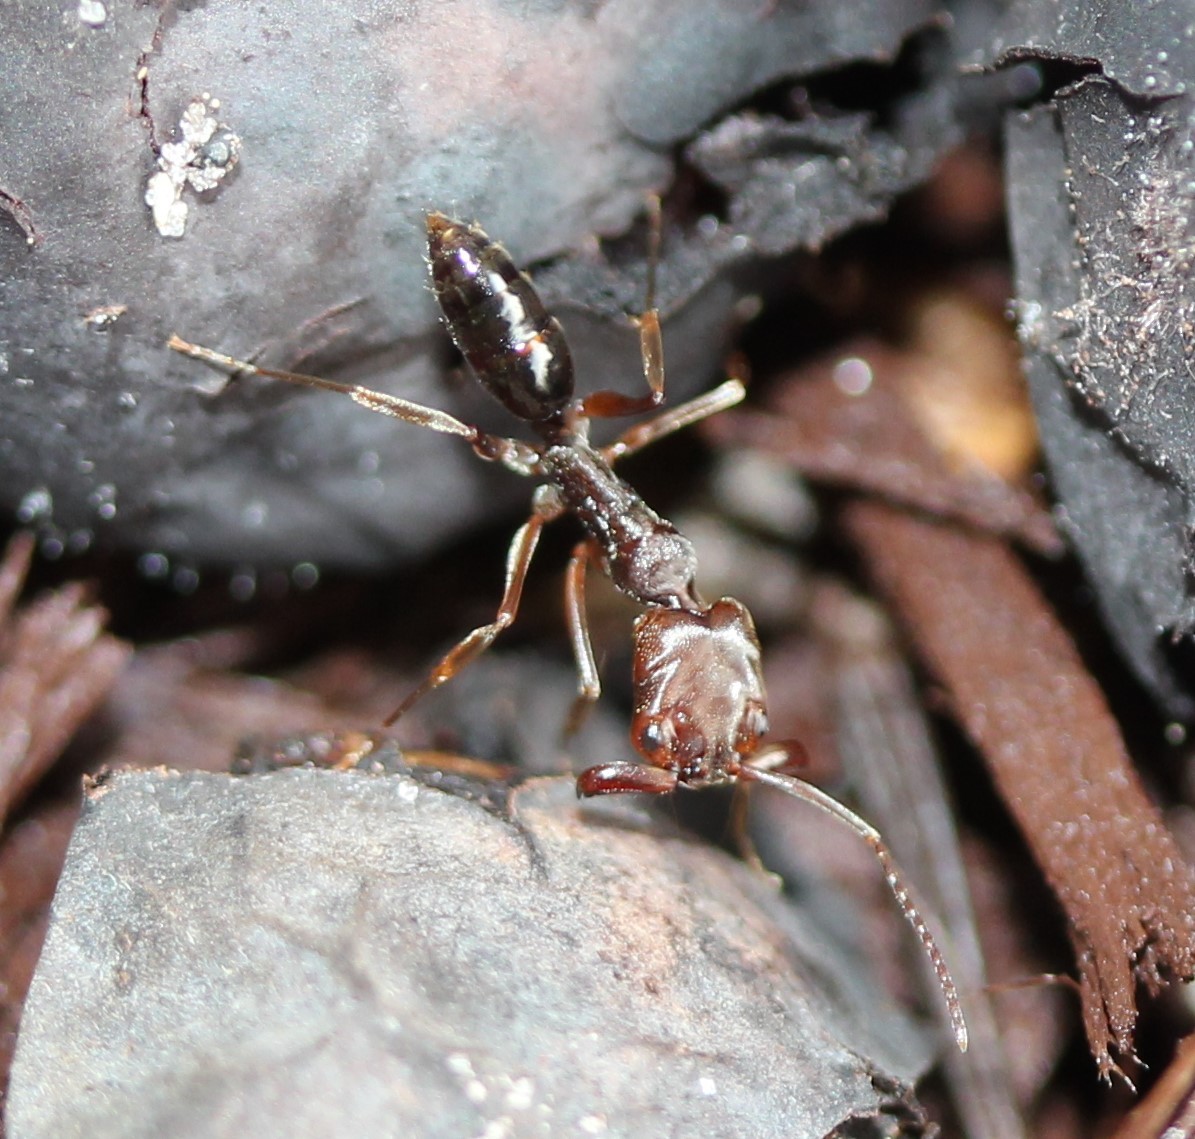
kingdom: Animalia
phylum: Arthropoda
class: Insecta
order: Hymenoptera
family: Formicidae
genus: Odontomachus
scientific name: Odontomachus ruginodis
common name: Trapjaw ant
